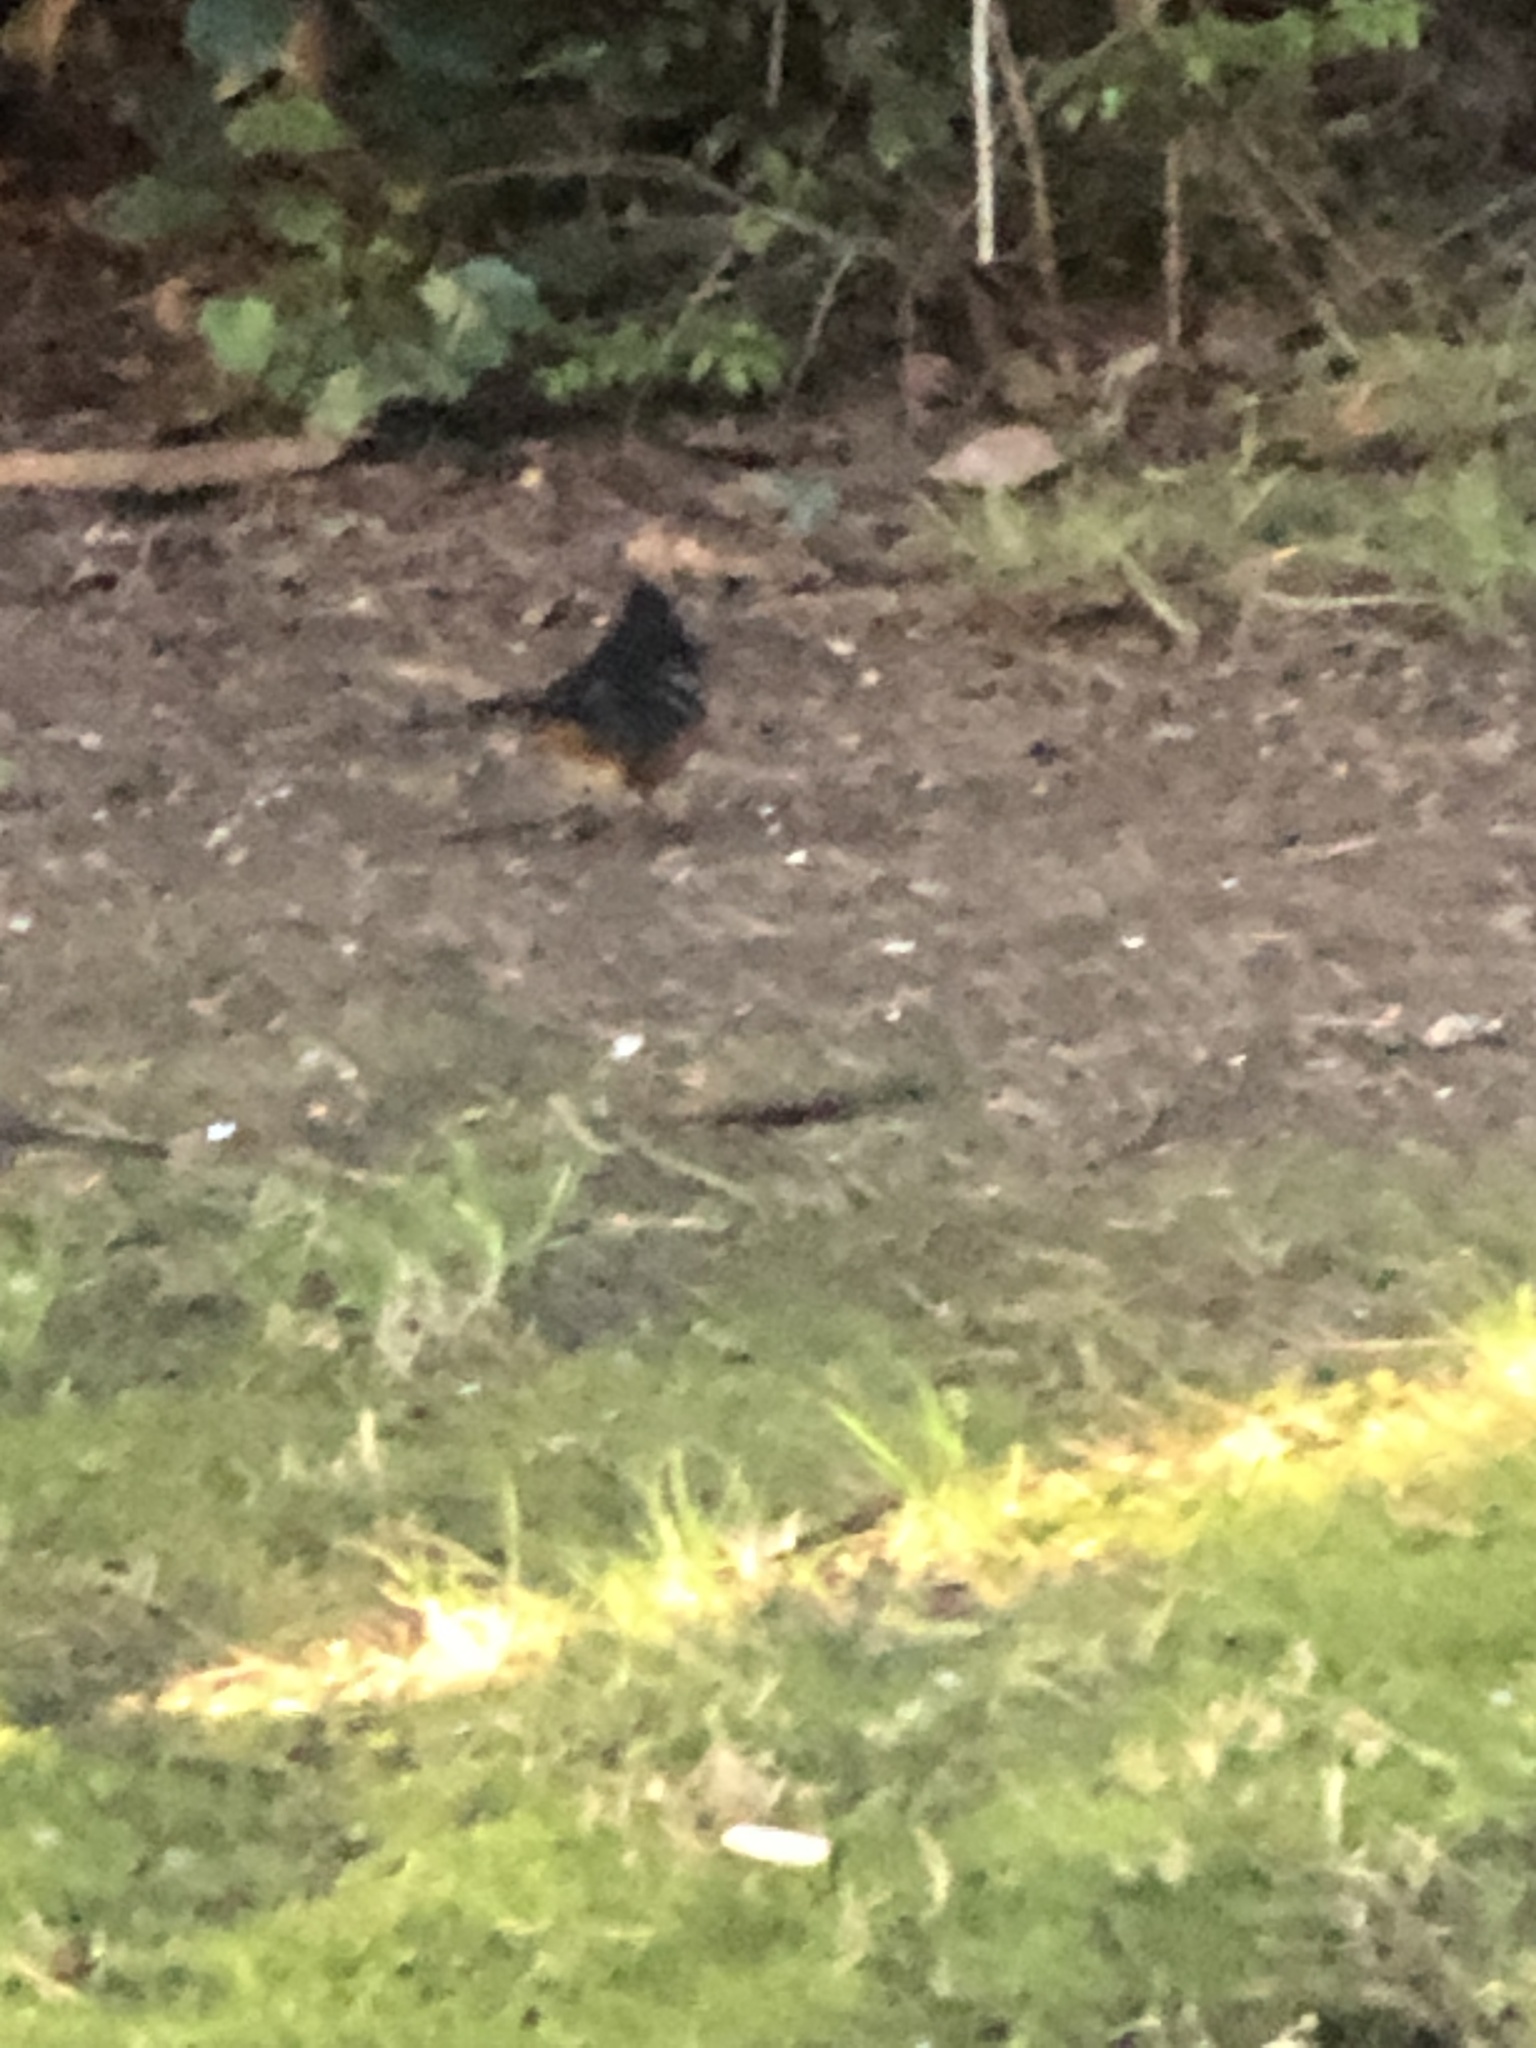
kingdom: Animalia
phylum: Chordata
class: Aves
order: Passeriformes
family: Passerellidae
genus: Pipilo
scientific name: Pipilo maculatus
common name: Spotted towhee
